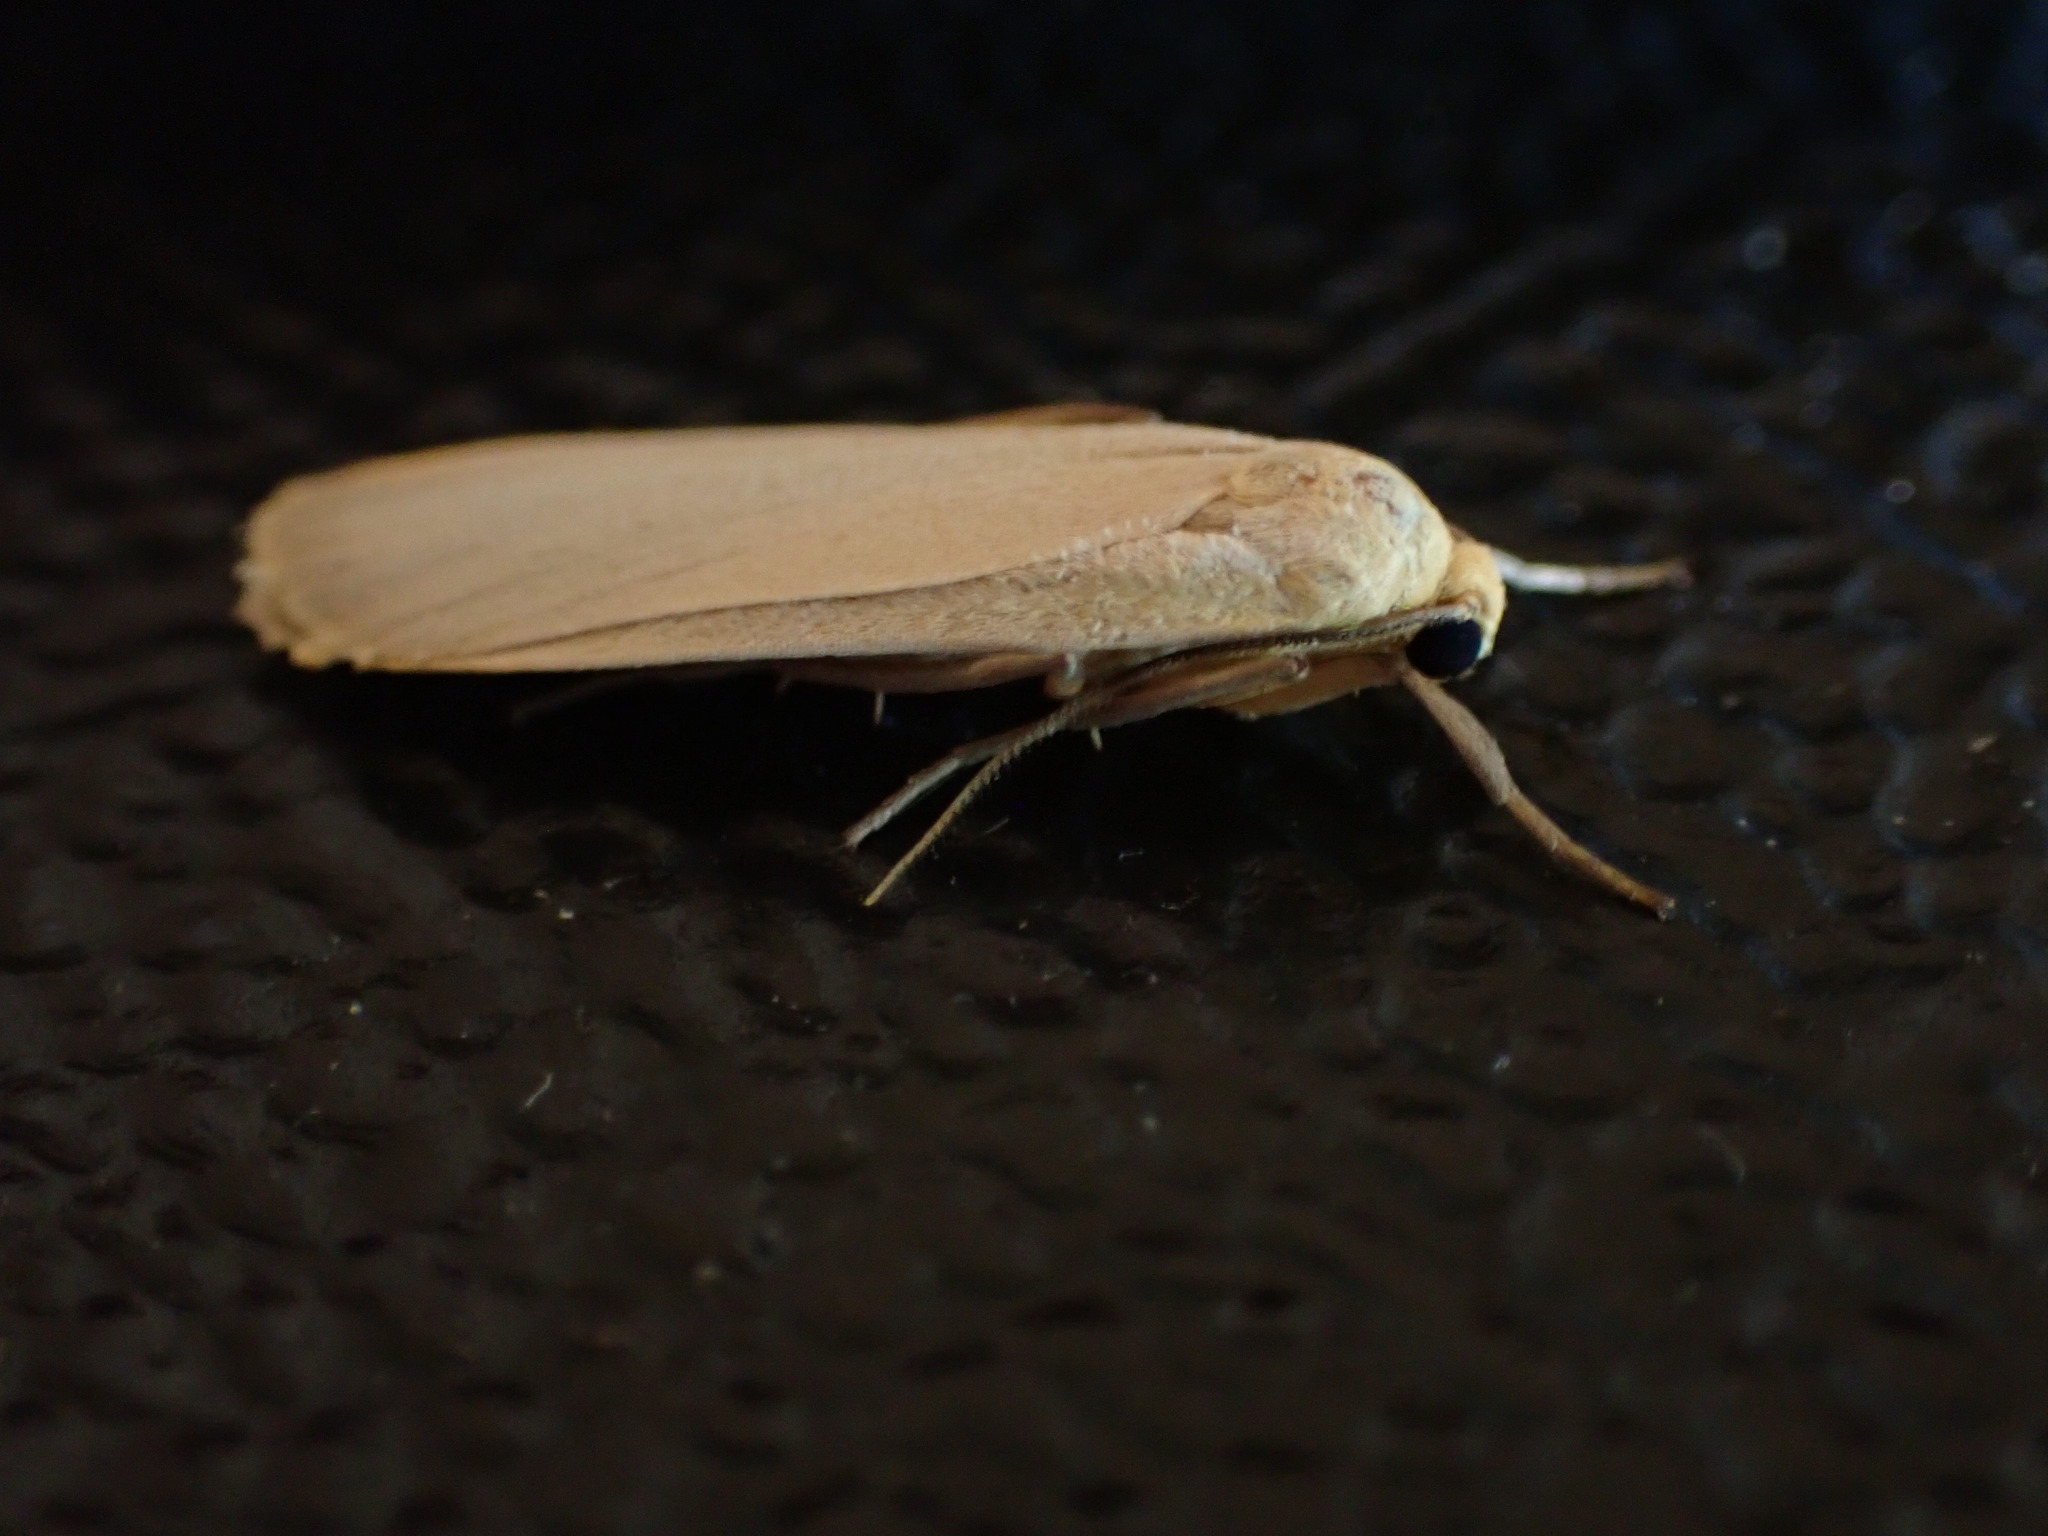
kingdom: Animalia
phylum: Arthropoda
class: Insecta
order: Lepidoptera
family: Erebidae
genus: Katha
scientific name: Katha depressa
